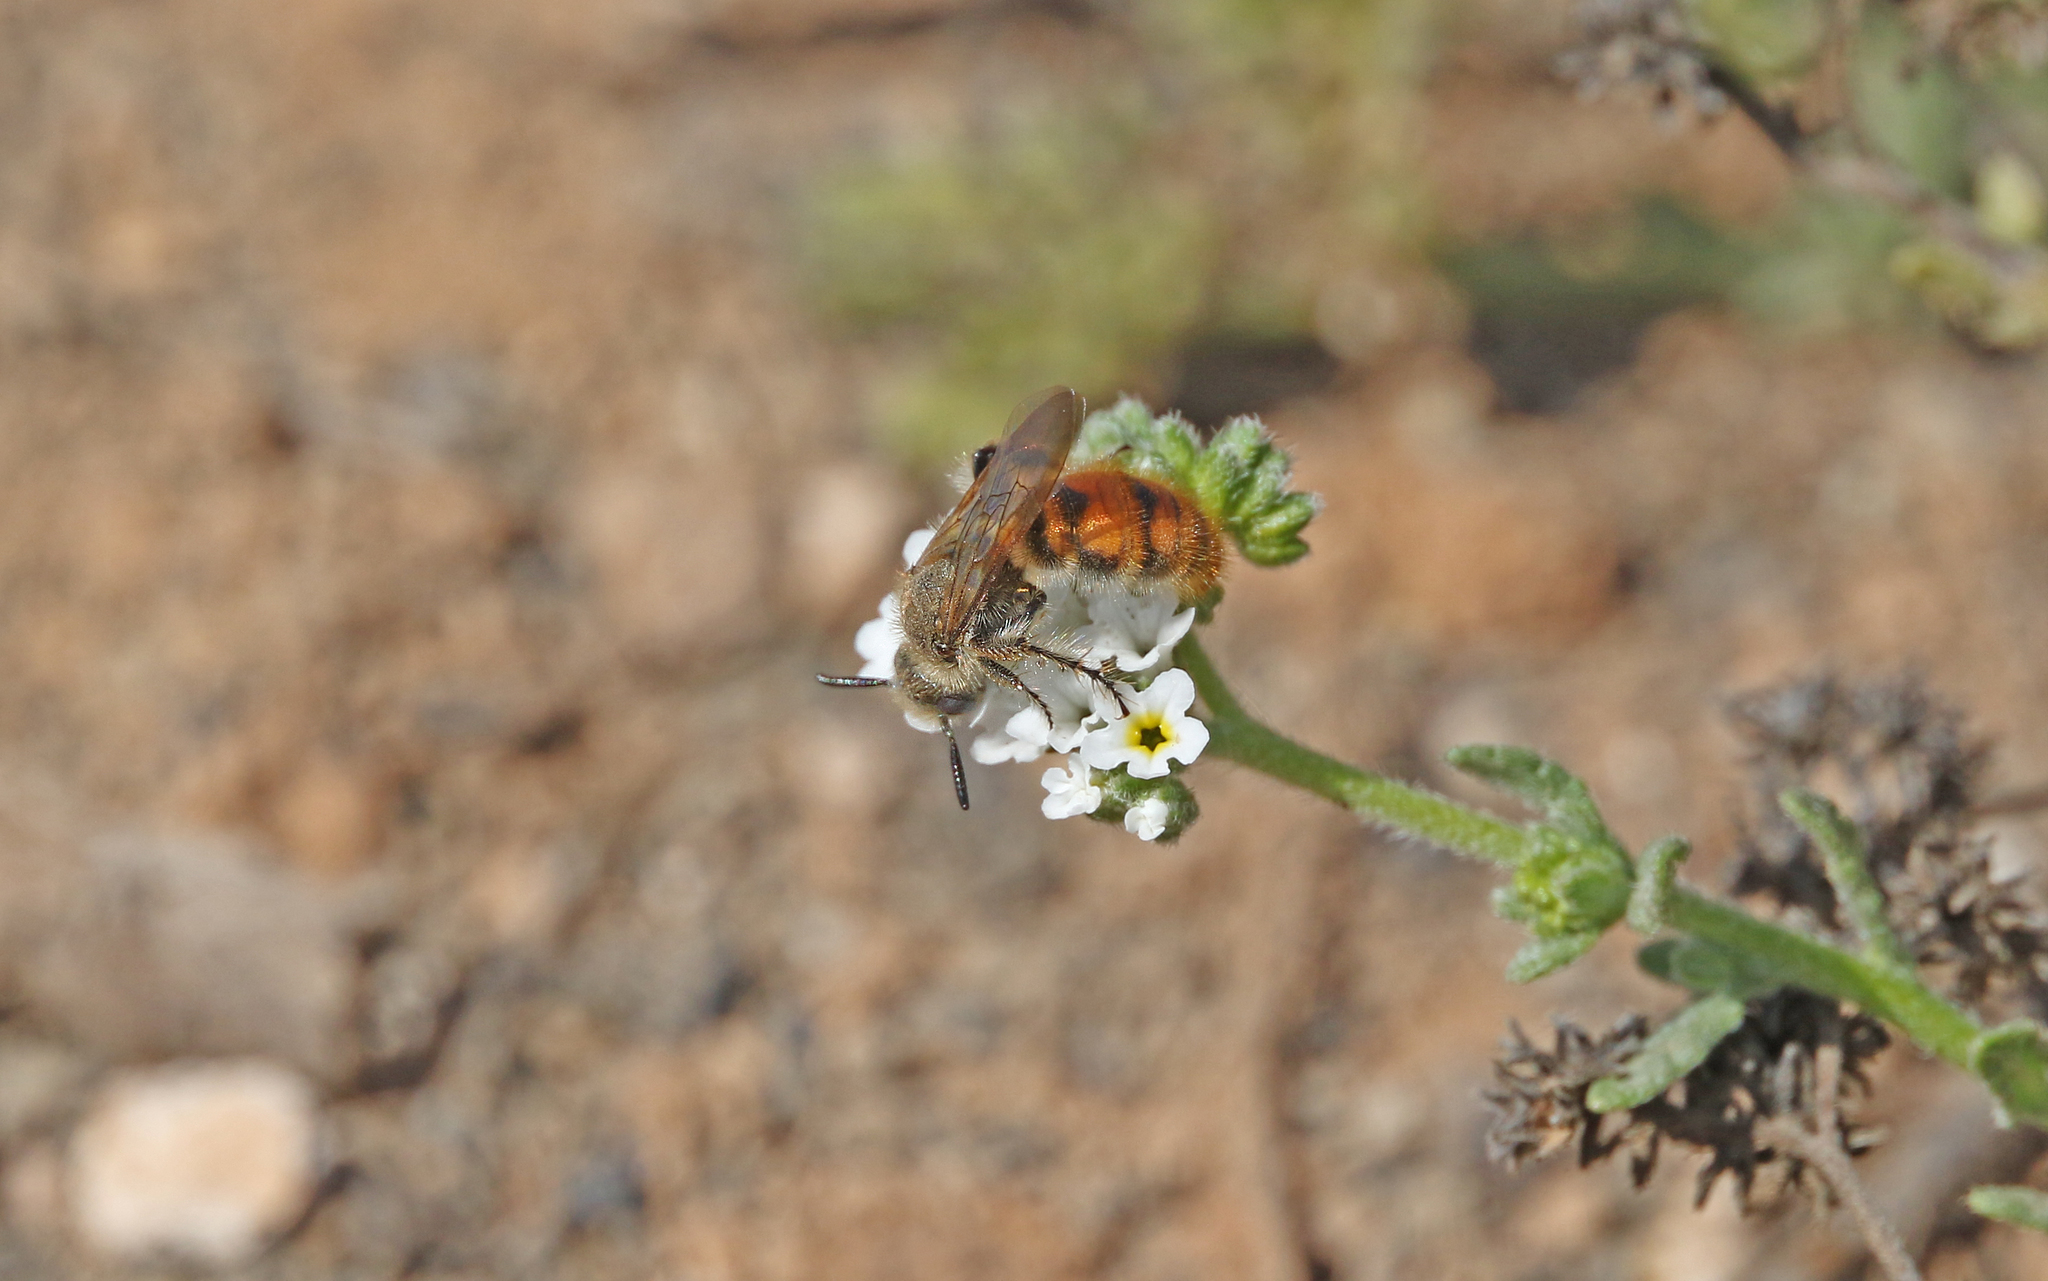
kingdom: Animalia
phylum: Arthropoda
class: Insecta
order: Hymenoptera
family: Scoliidae
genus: Micromeriella
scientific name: Micromeriella aureola
